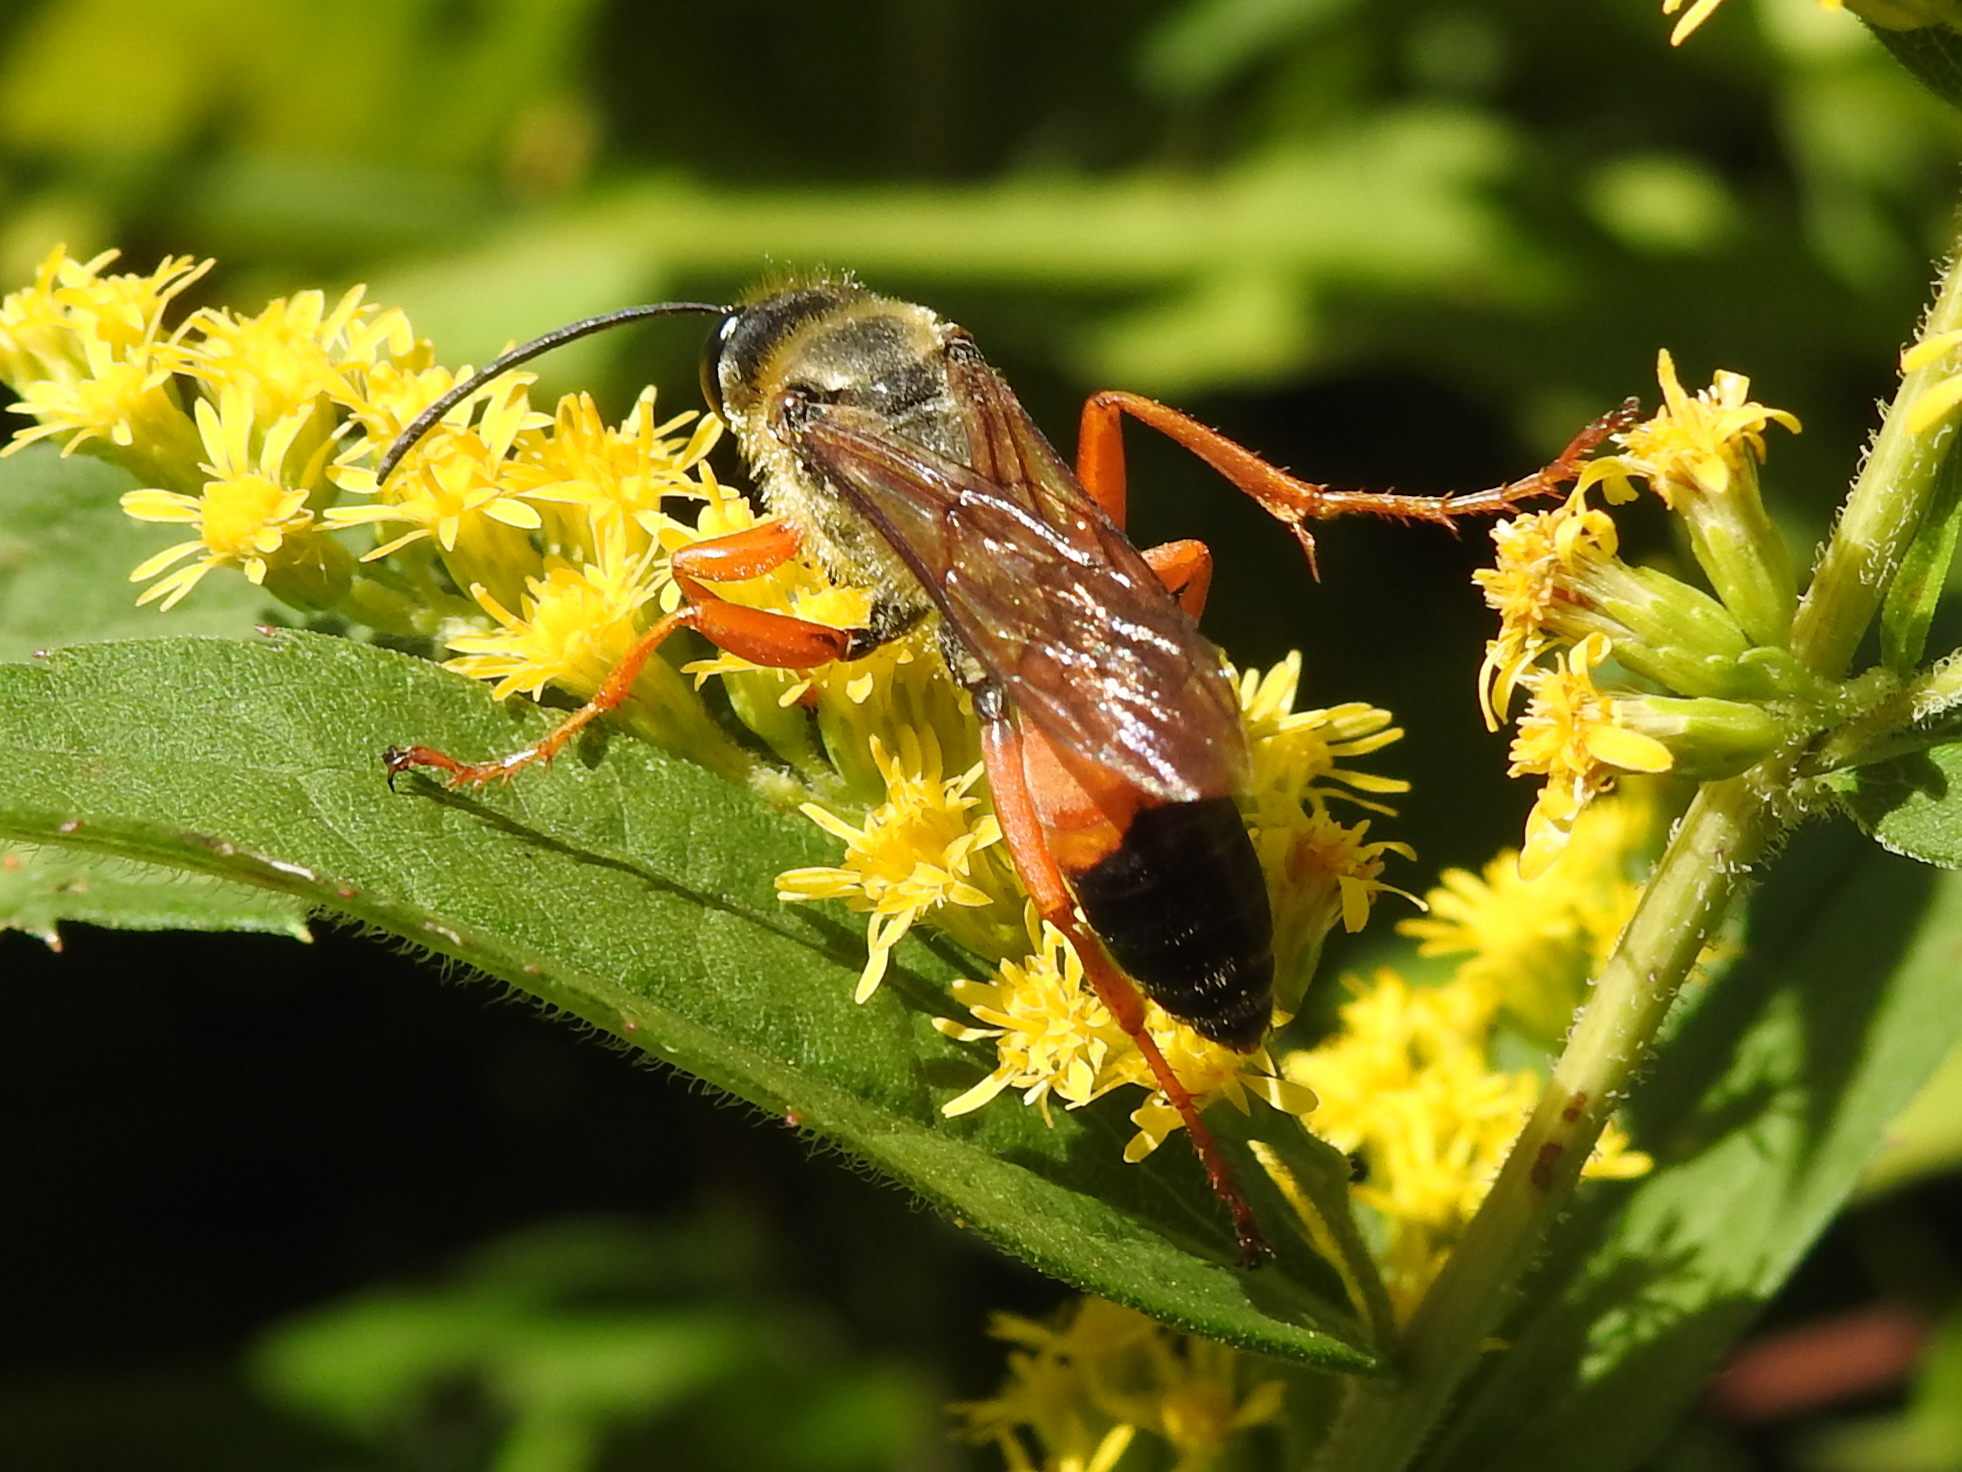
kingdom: Animalia
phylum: Arthropoda
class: Insecta
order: Hymenoptera
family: Sphecidae
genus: Sphex
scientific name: Sphex ichneumoneus
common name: Great golden digger wasp
